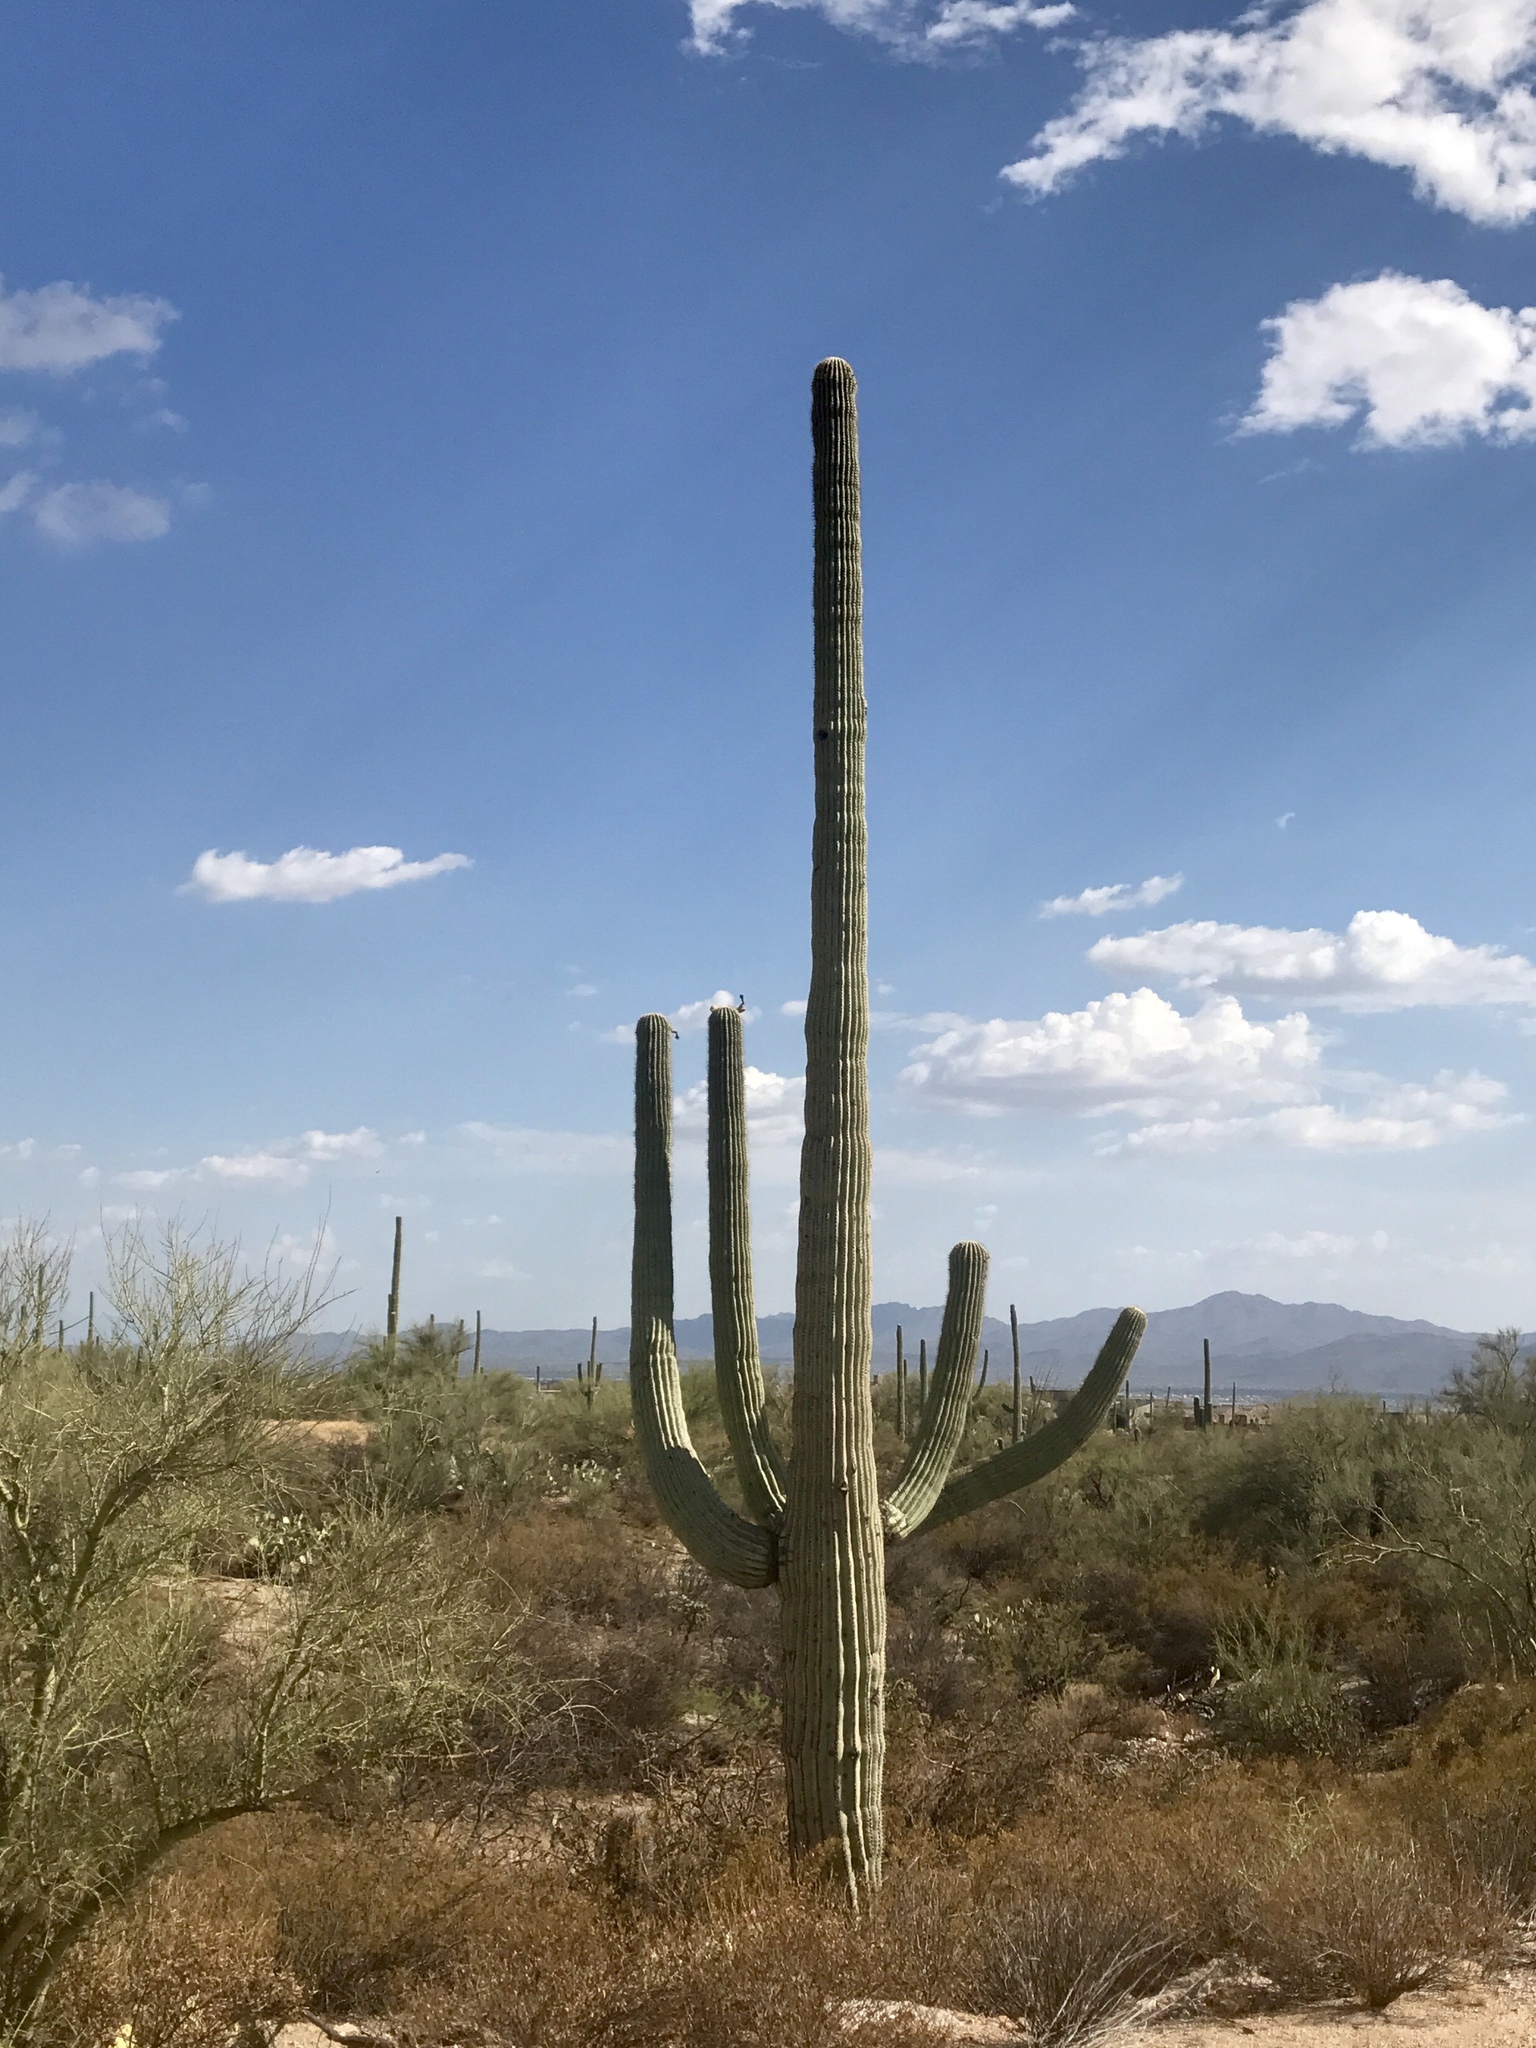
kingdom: Plantae
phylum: Tracheophyta
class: Magnoliopsida
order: Caryophyllales
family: Cactaceae
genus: Carnegiea
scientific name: Carnegiea gigantea
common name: Saguaro
